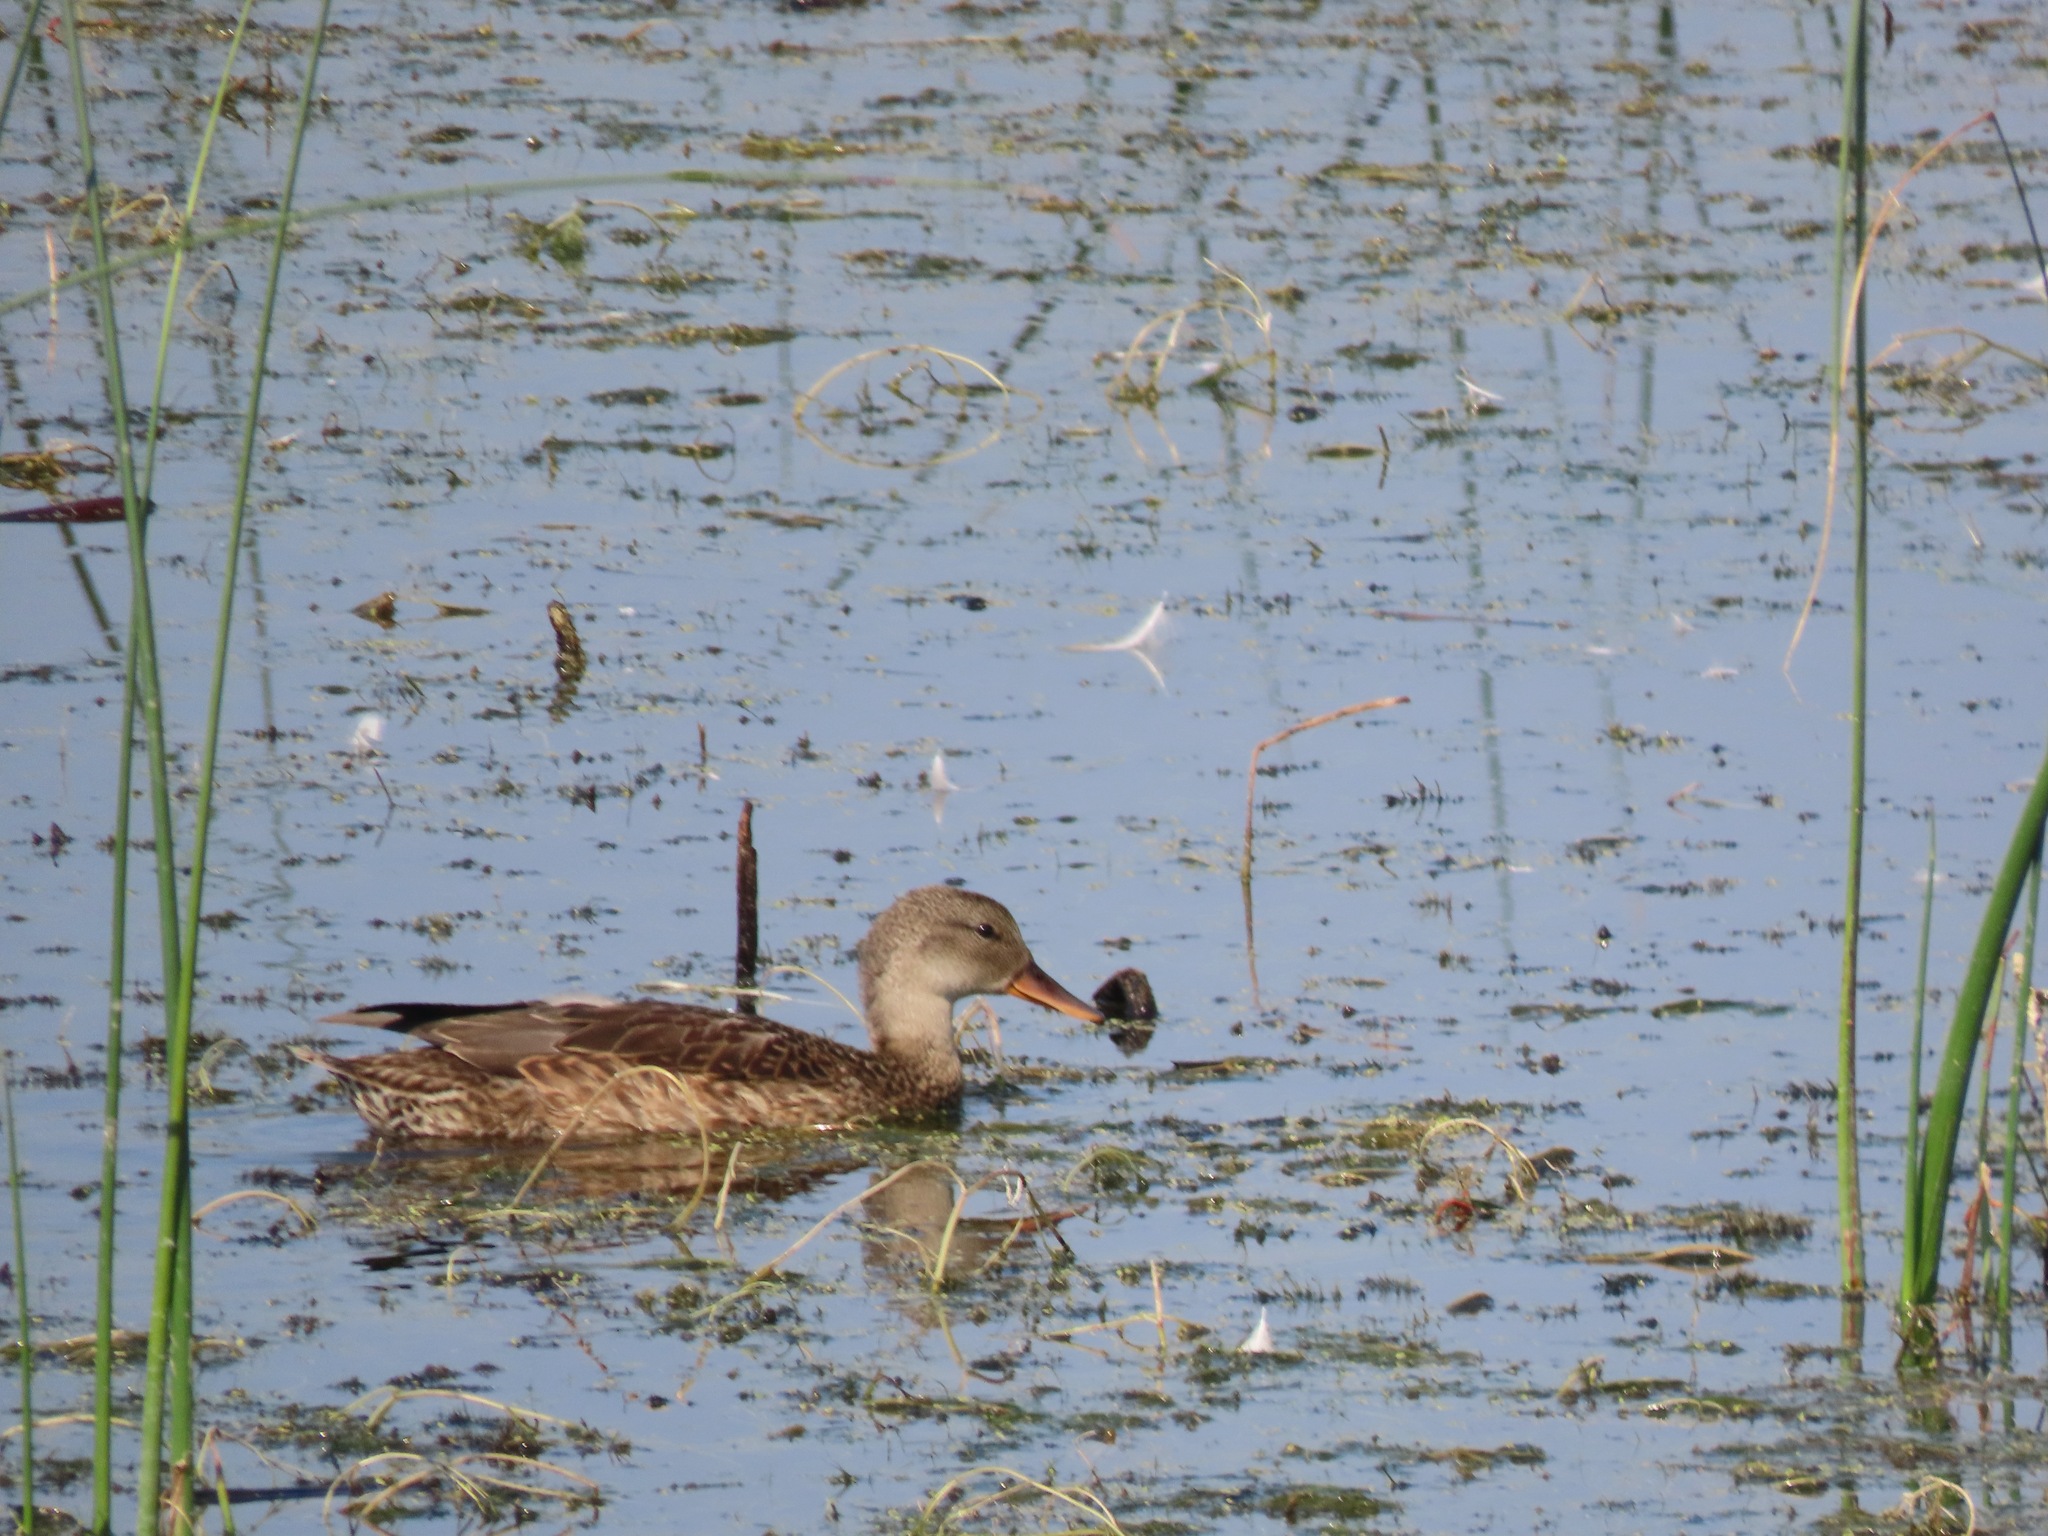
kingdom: Animalia
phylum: Chordata
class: Aves
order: Anseriformes
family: Anatidae
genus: Mareca
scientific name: Mareca strepera
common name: Gadwall
